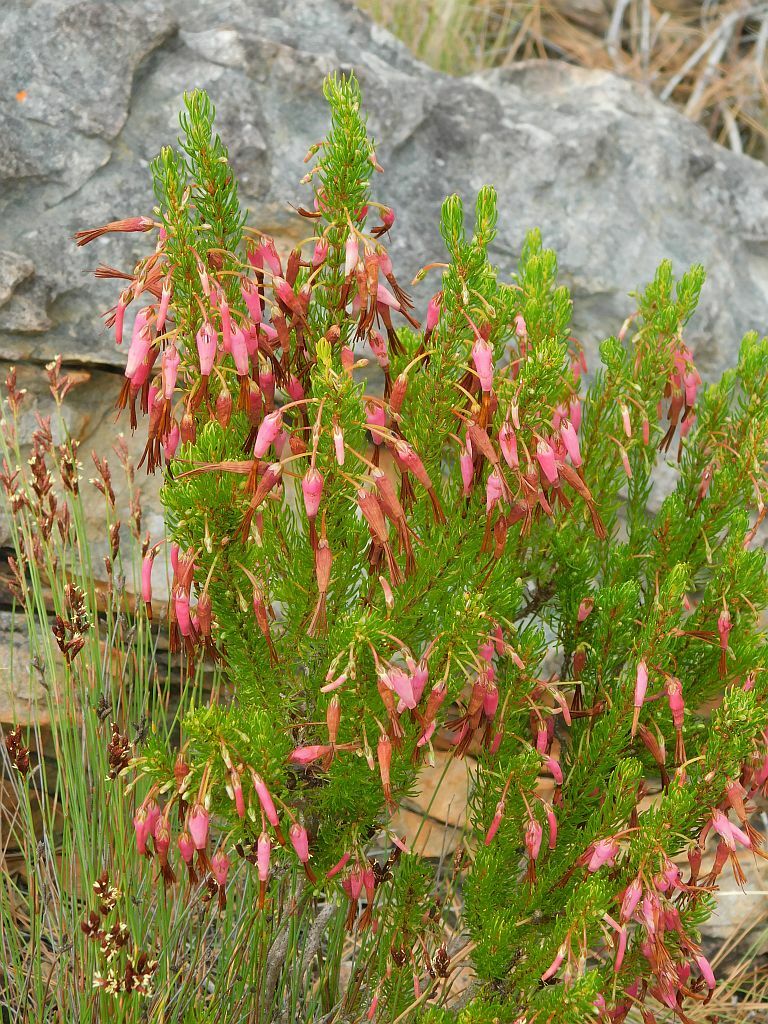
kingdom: Plantae
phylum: Tracheophyta
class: Magnoliopsida
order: Ericales
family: Ericaceae
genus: Erica
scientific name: Erica plukenetii
